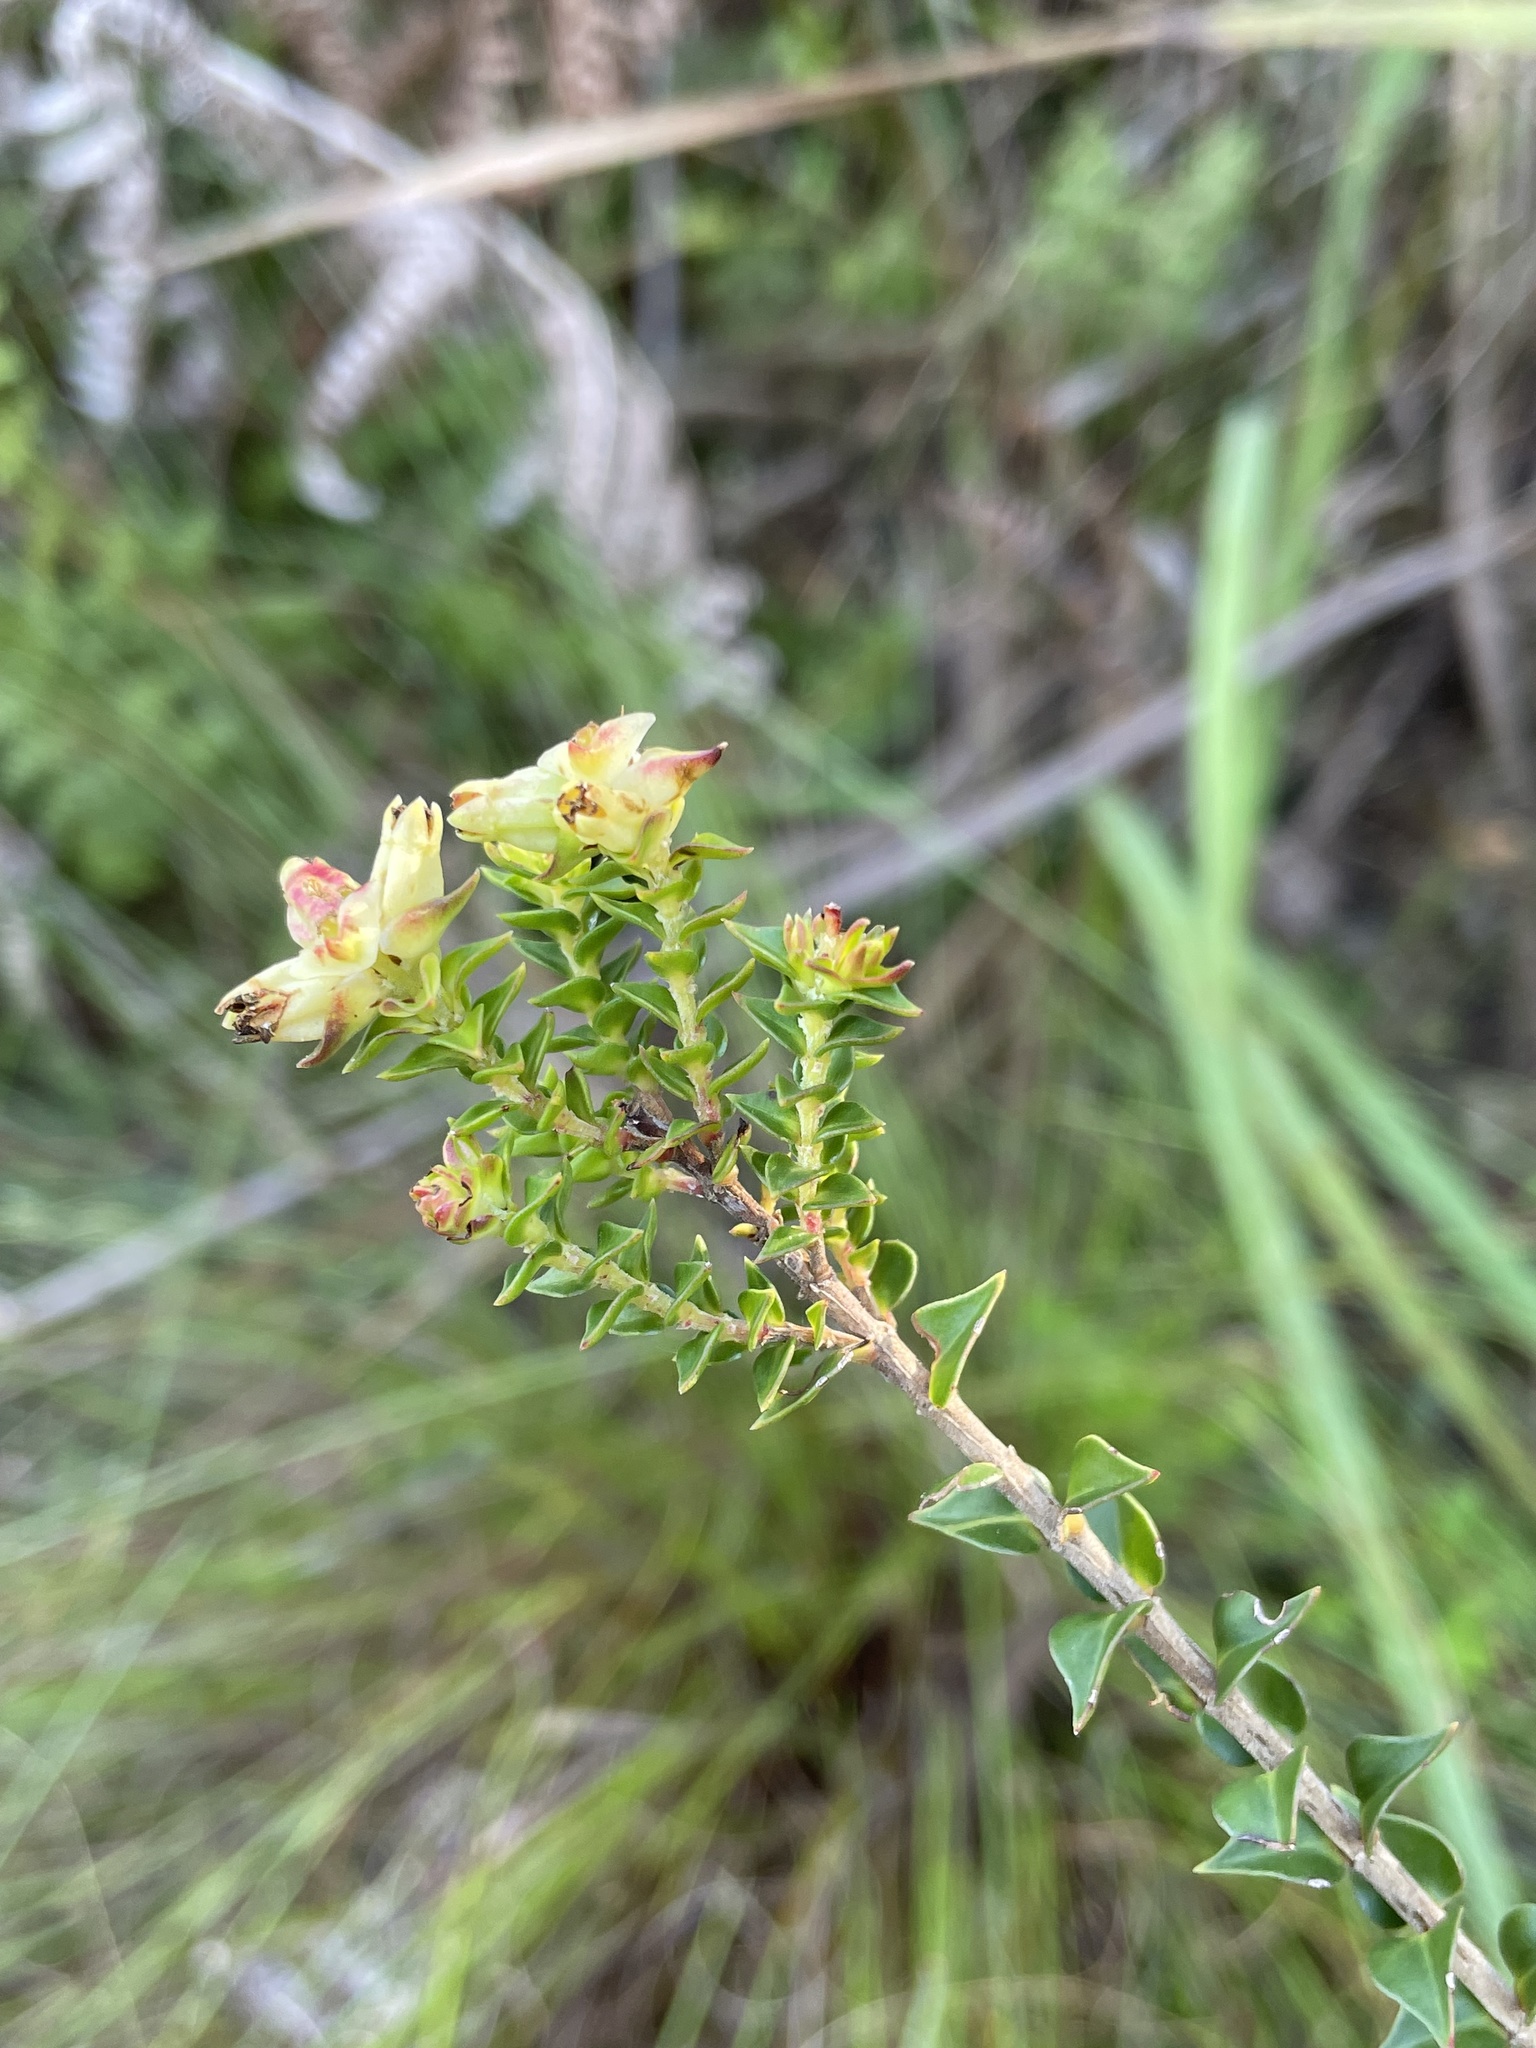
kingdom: Plantae
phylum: Tracheophyta
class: Magnoliopsida
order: Myrtales
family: Penaeaceae
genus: Penaea
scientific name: Penaea mucronata
